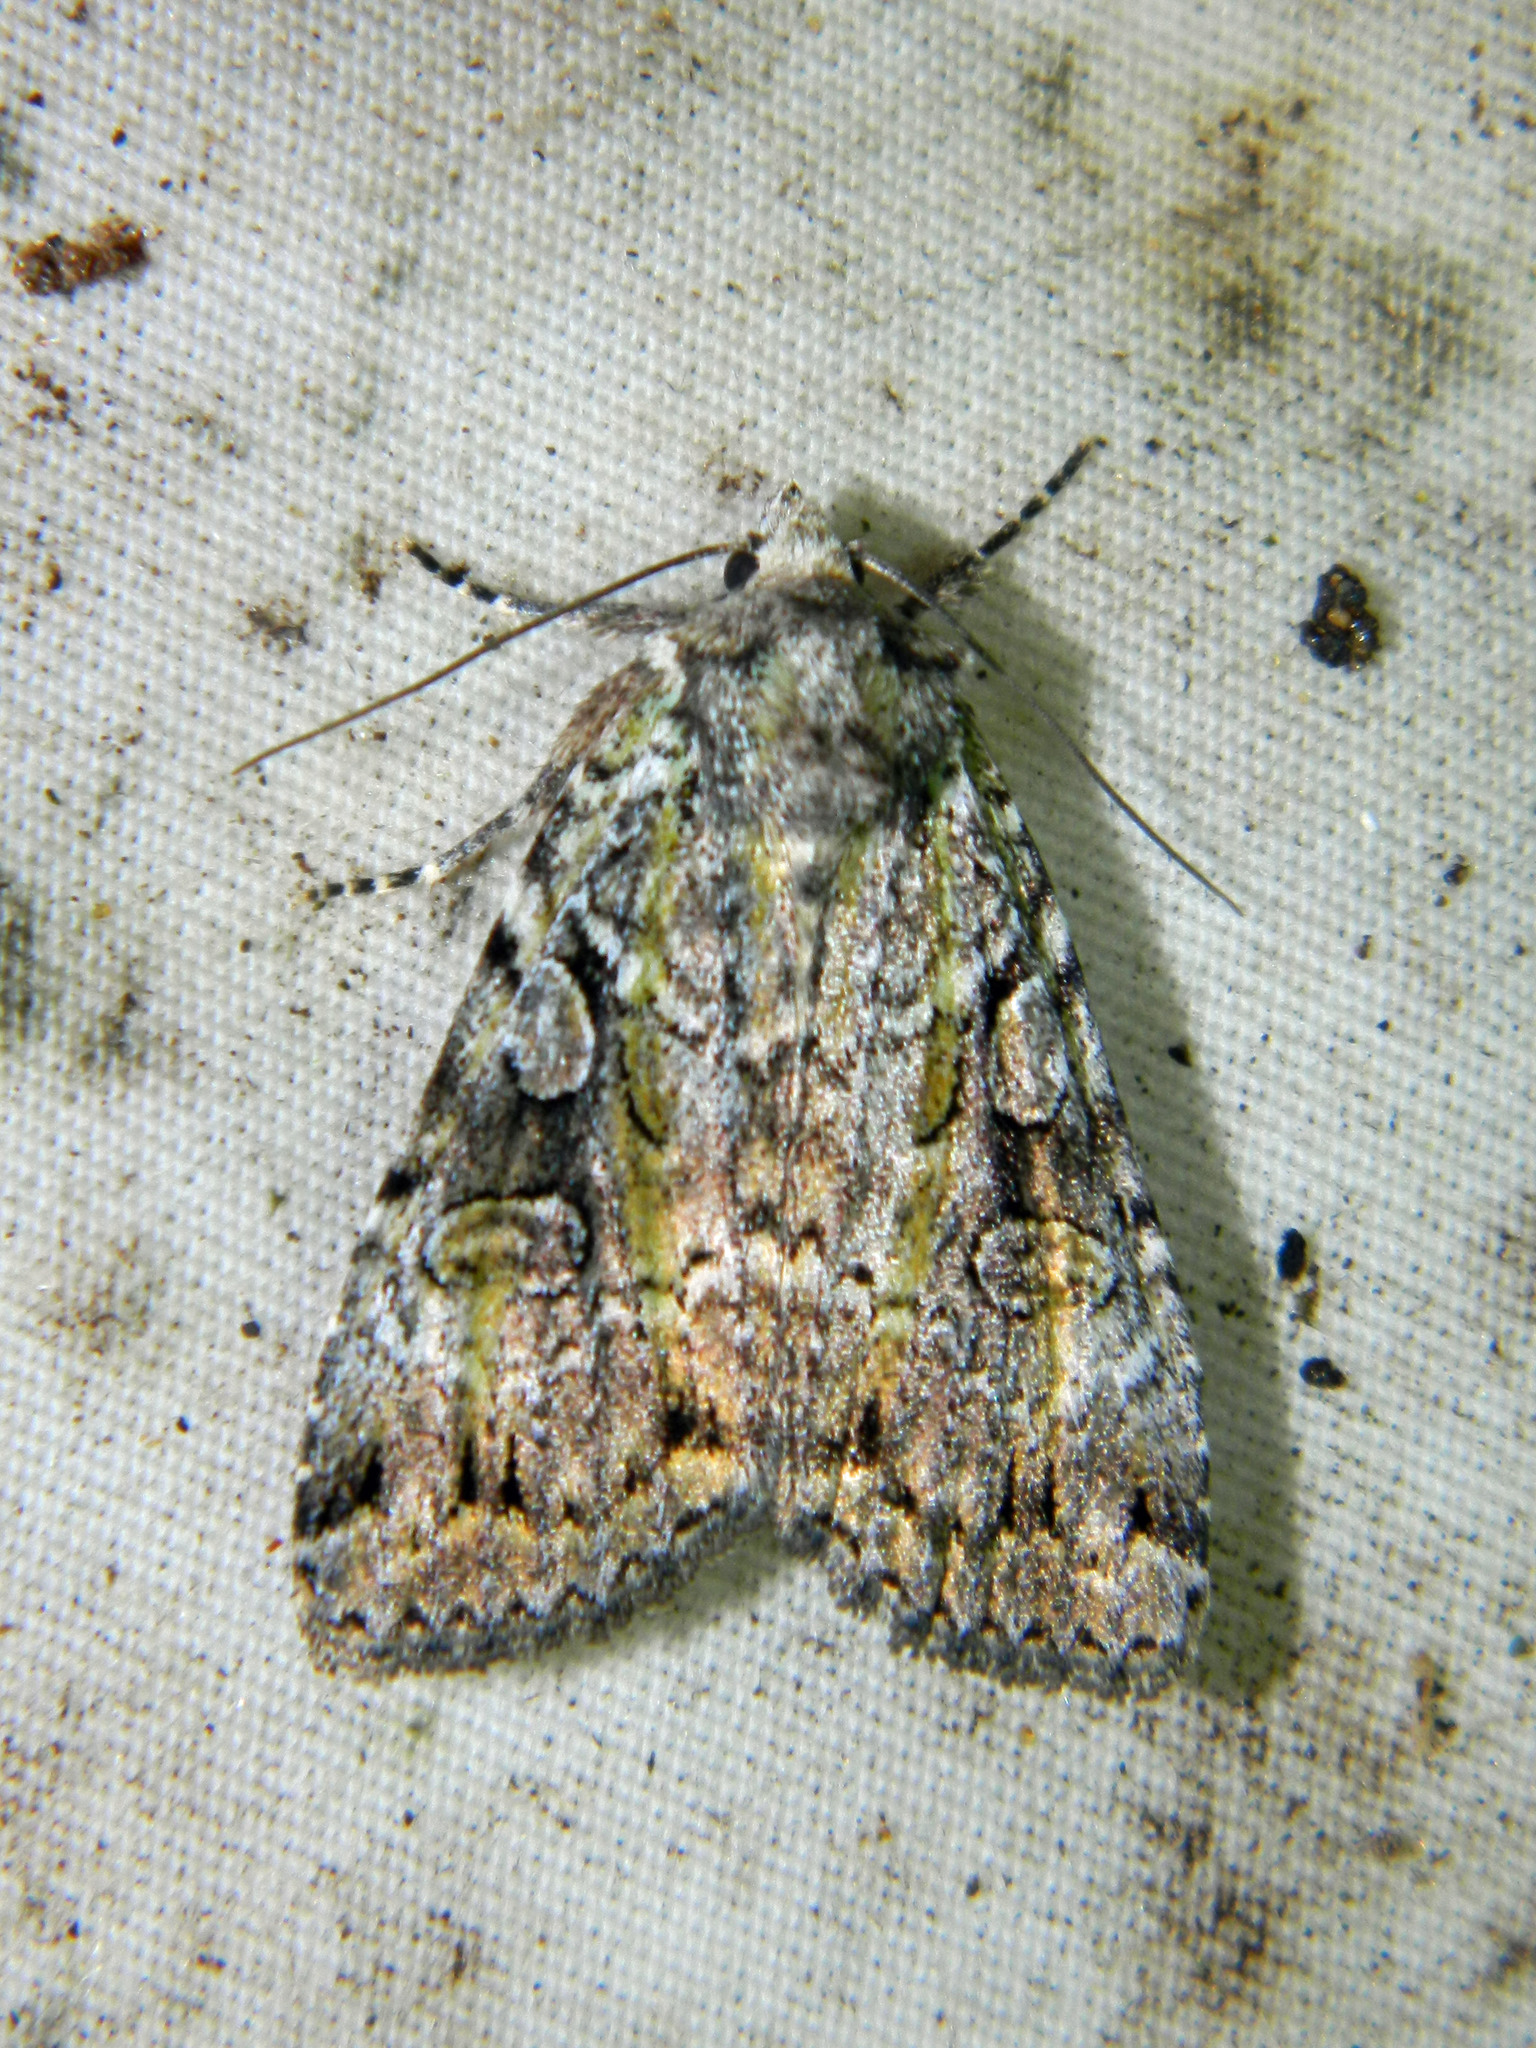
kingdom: Animalia
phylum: Arthropoda
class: Insecta
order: Lepidoptera
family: Noctuidae
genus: Anaplectoides
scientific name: Anaplectoides pressus
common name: Dappled dart
